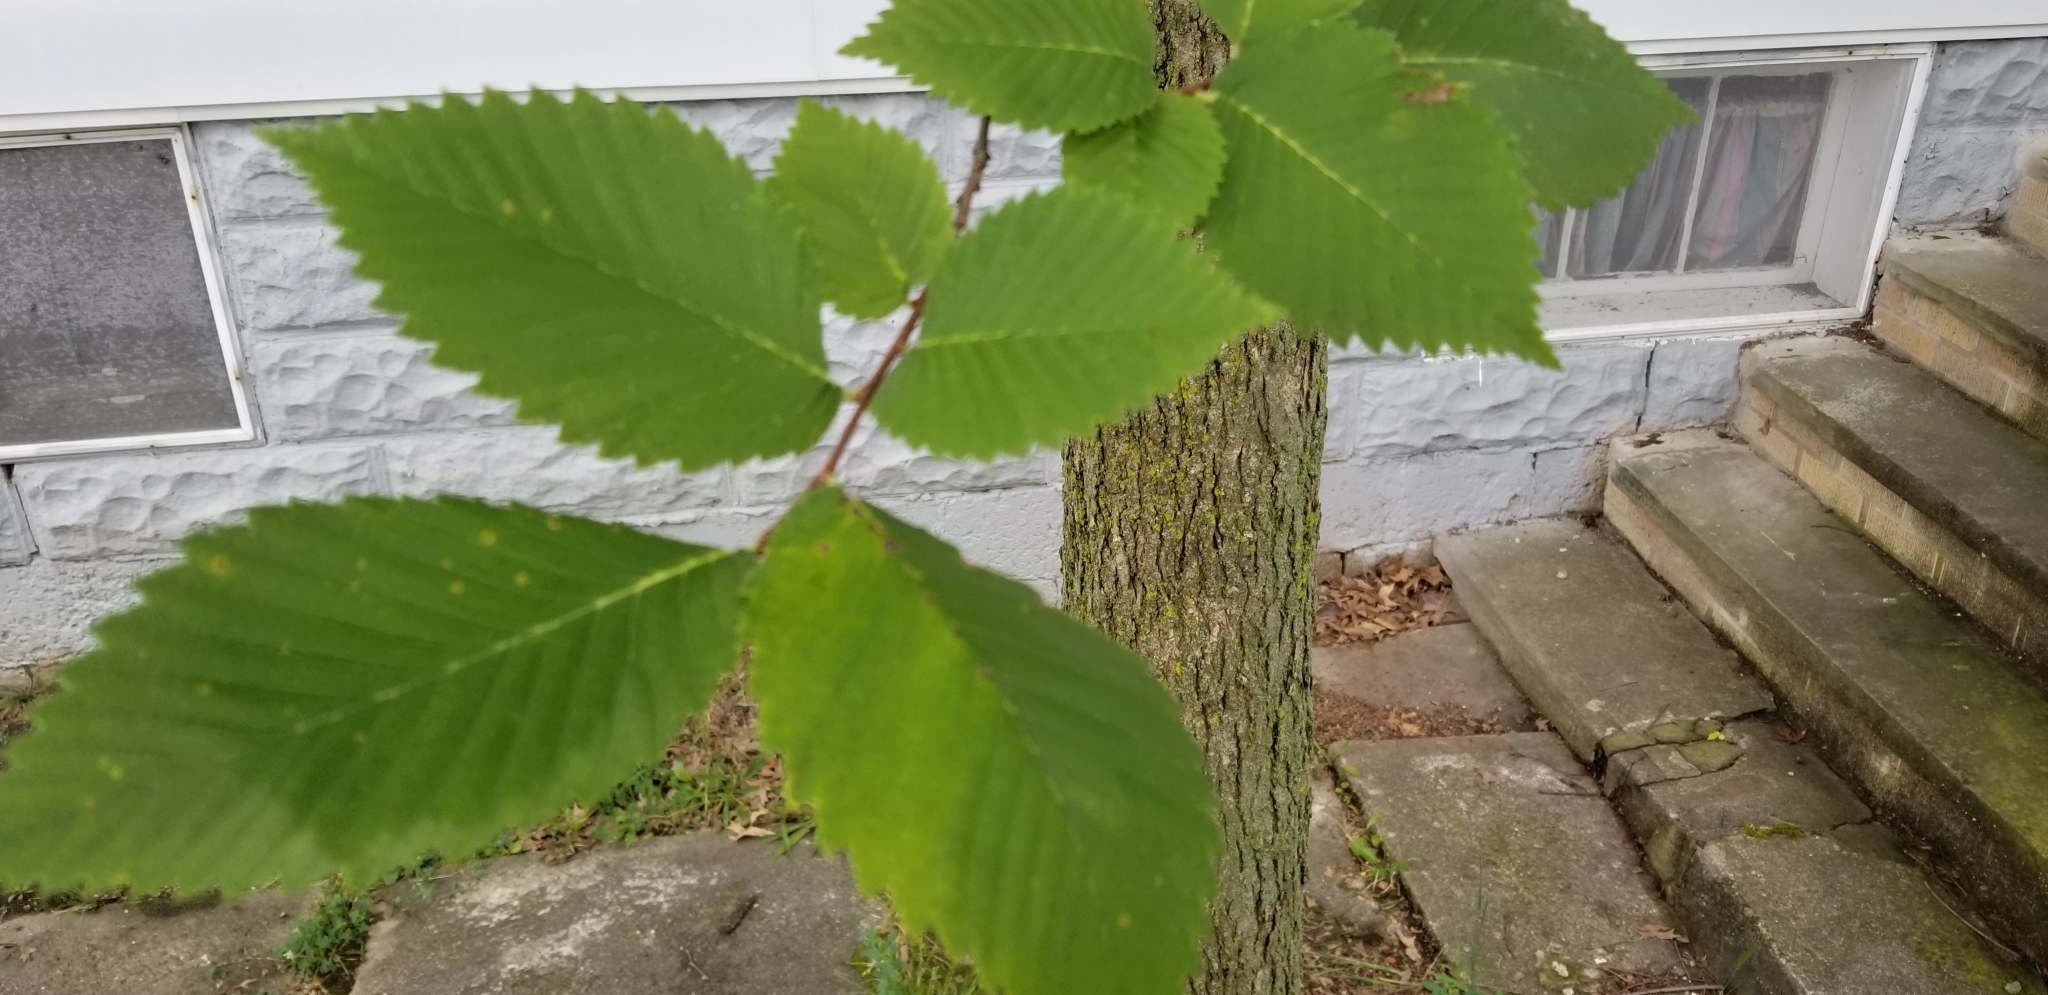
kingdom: Plantae
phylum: Tracheophyta
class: Magnoliopsida
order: Rosales
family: Ulmaceae
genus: Ulmus
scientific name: Ulmus americana
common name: American elm
